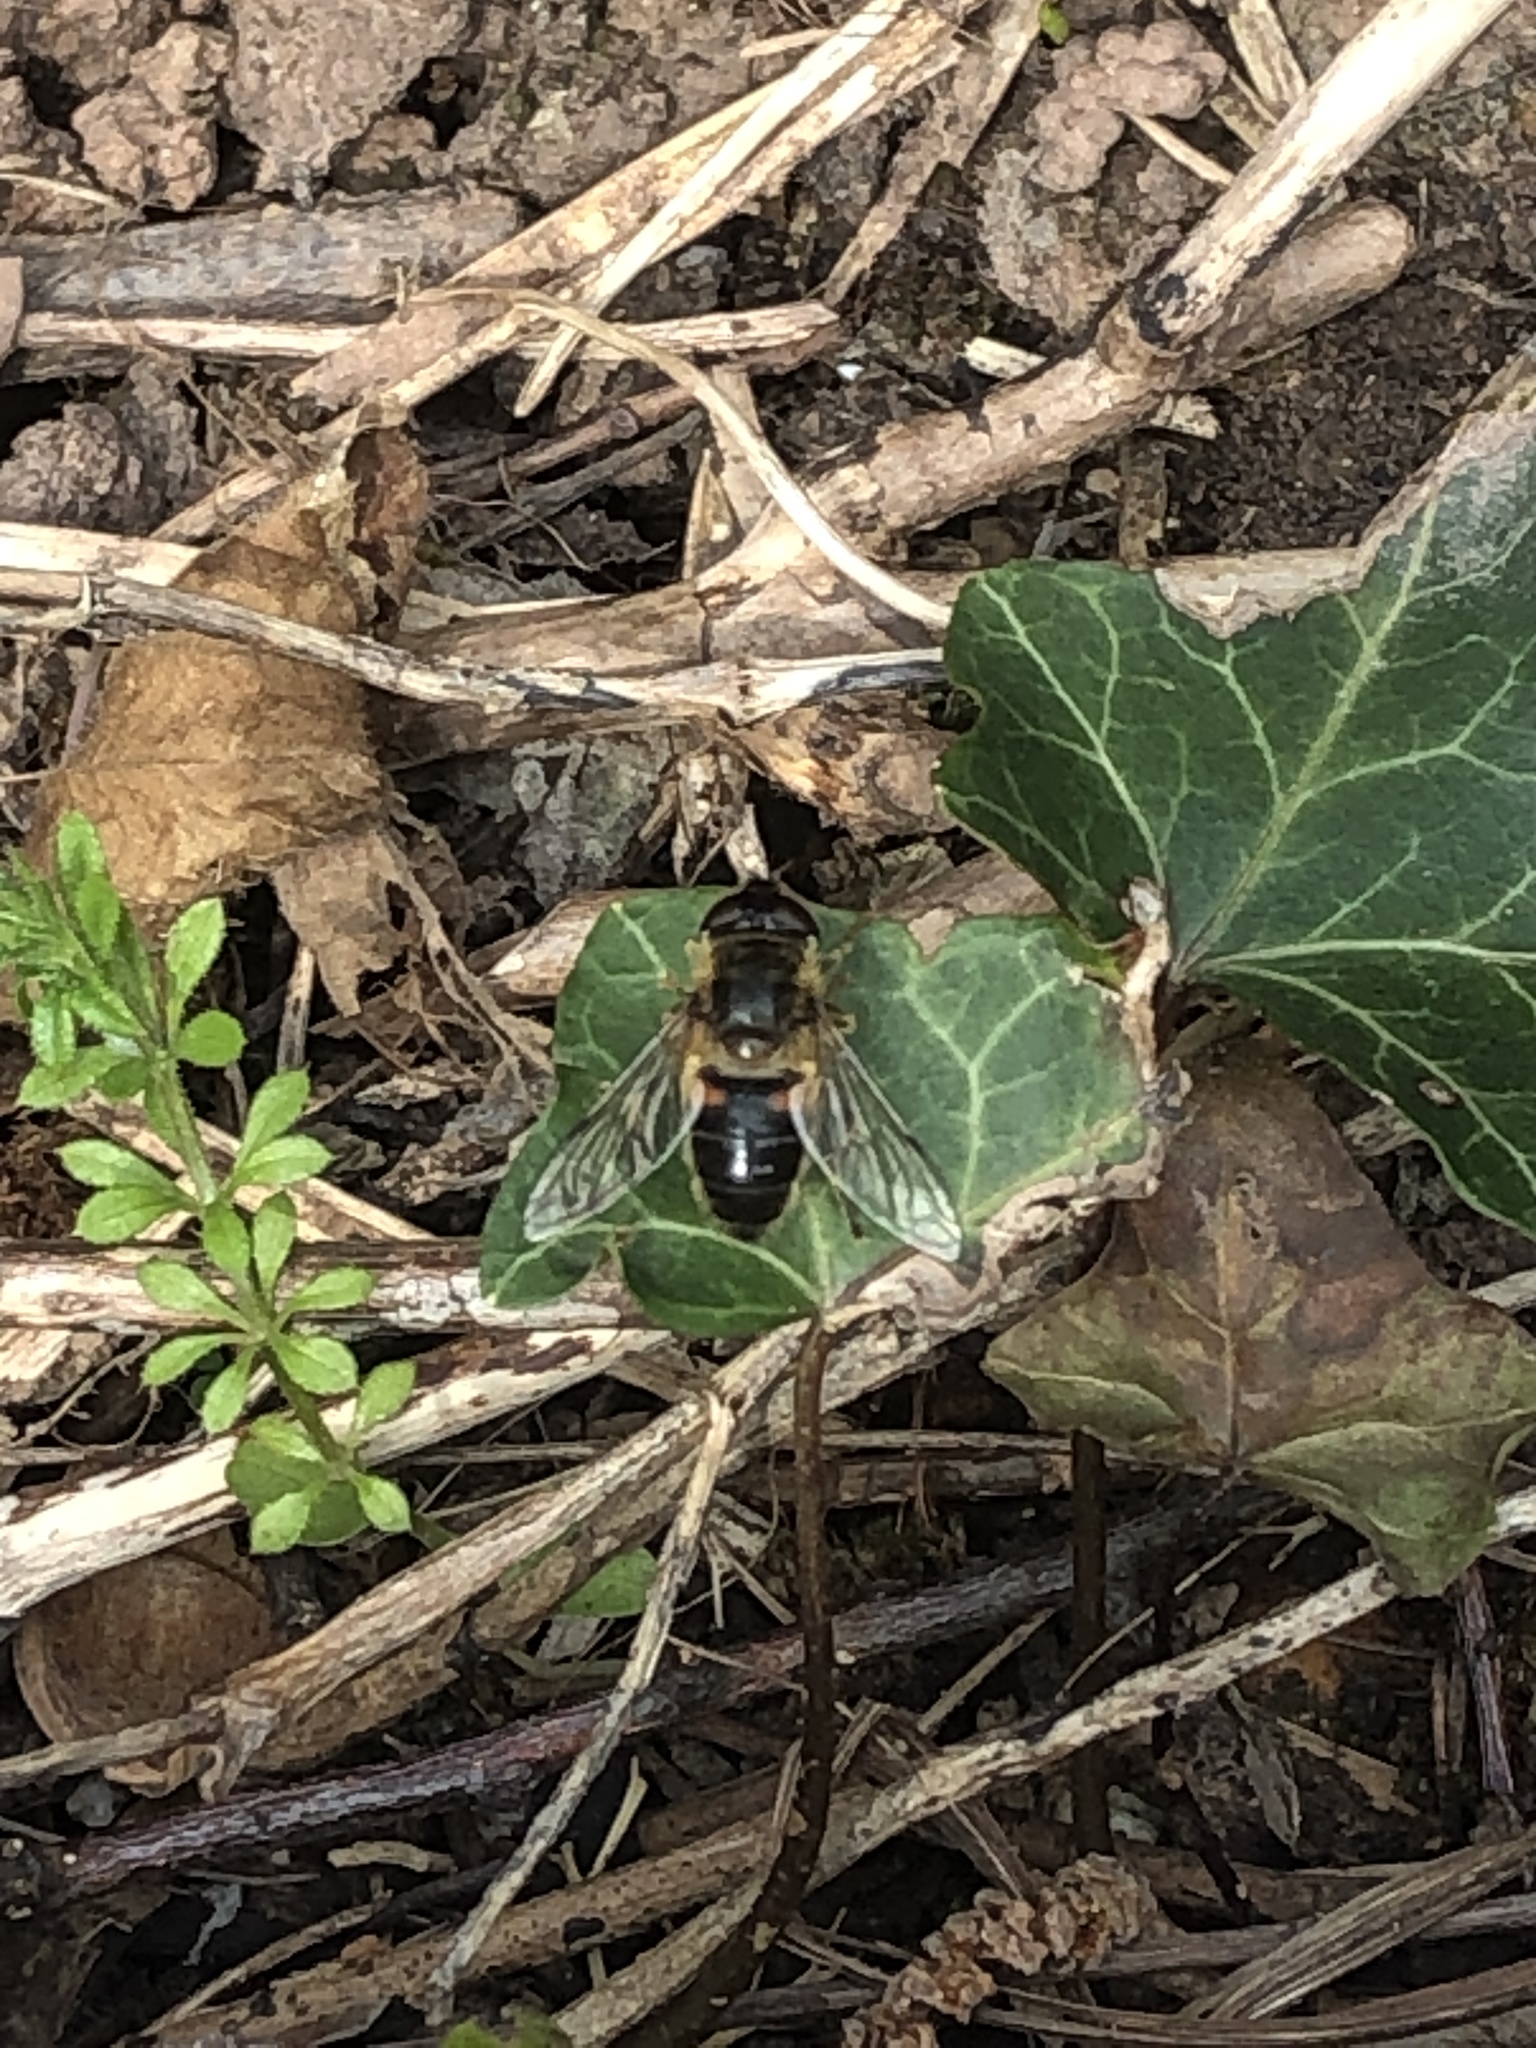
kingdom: Animalia
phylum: Arthropoda
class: Insecta
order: Diptera
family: Syrphidae
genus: Eristalis
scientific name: Eristalis
